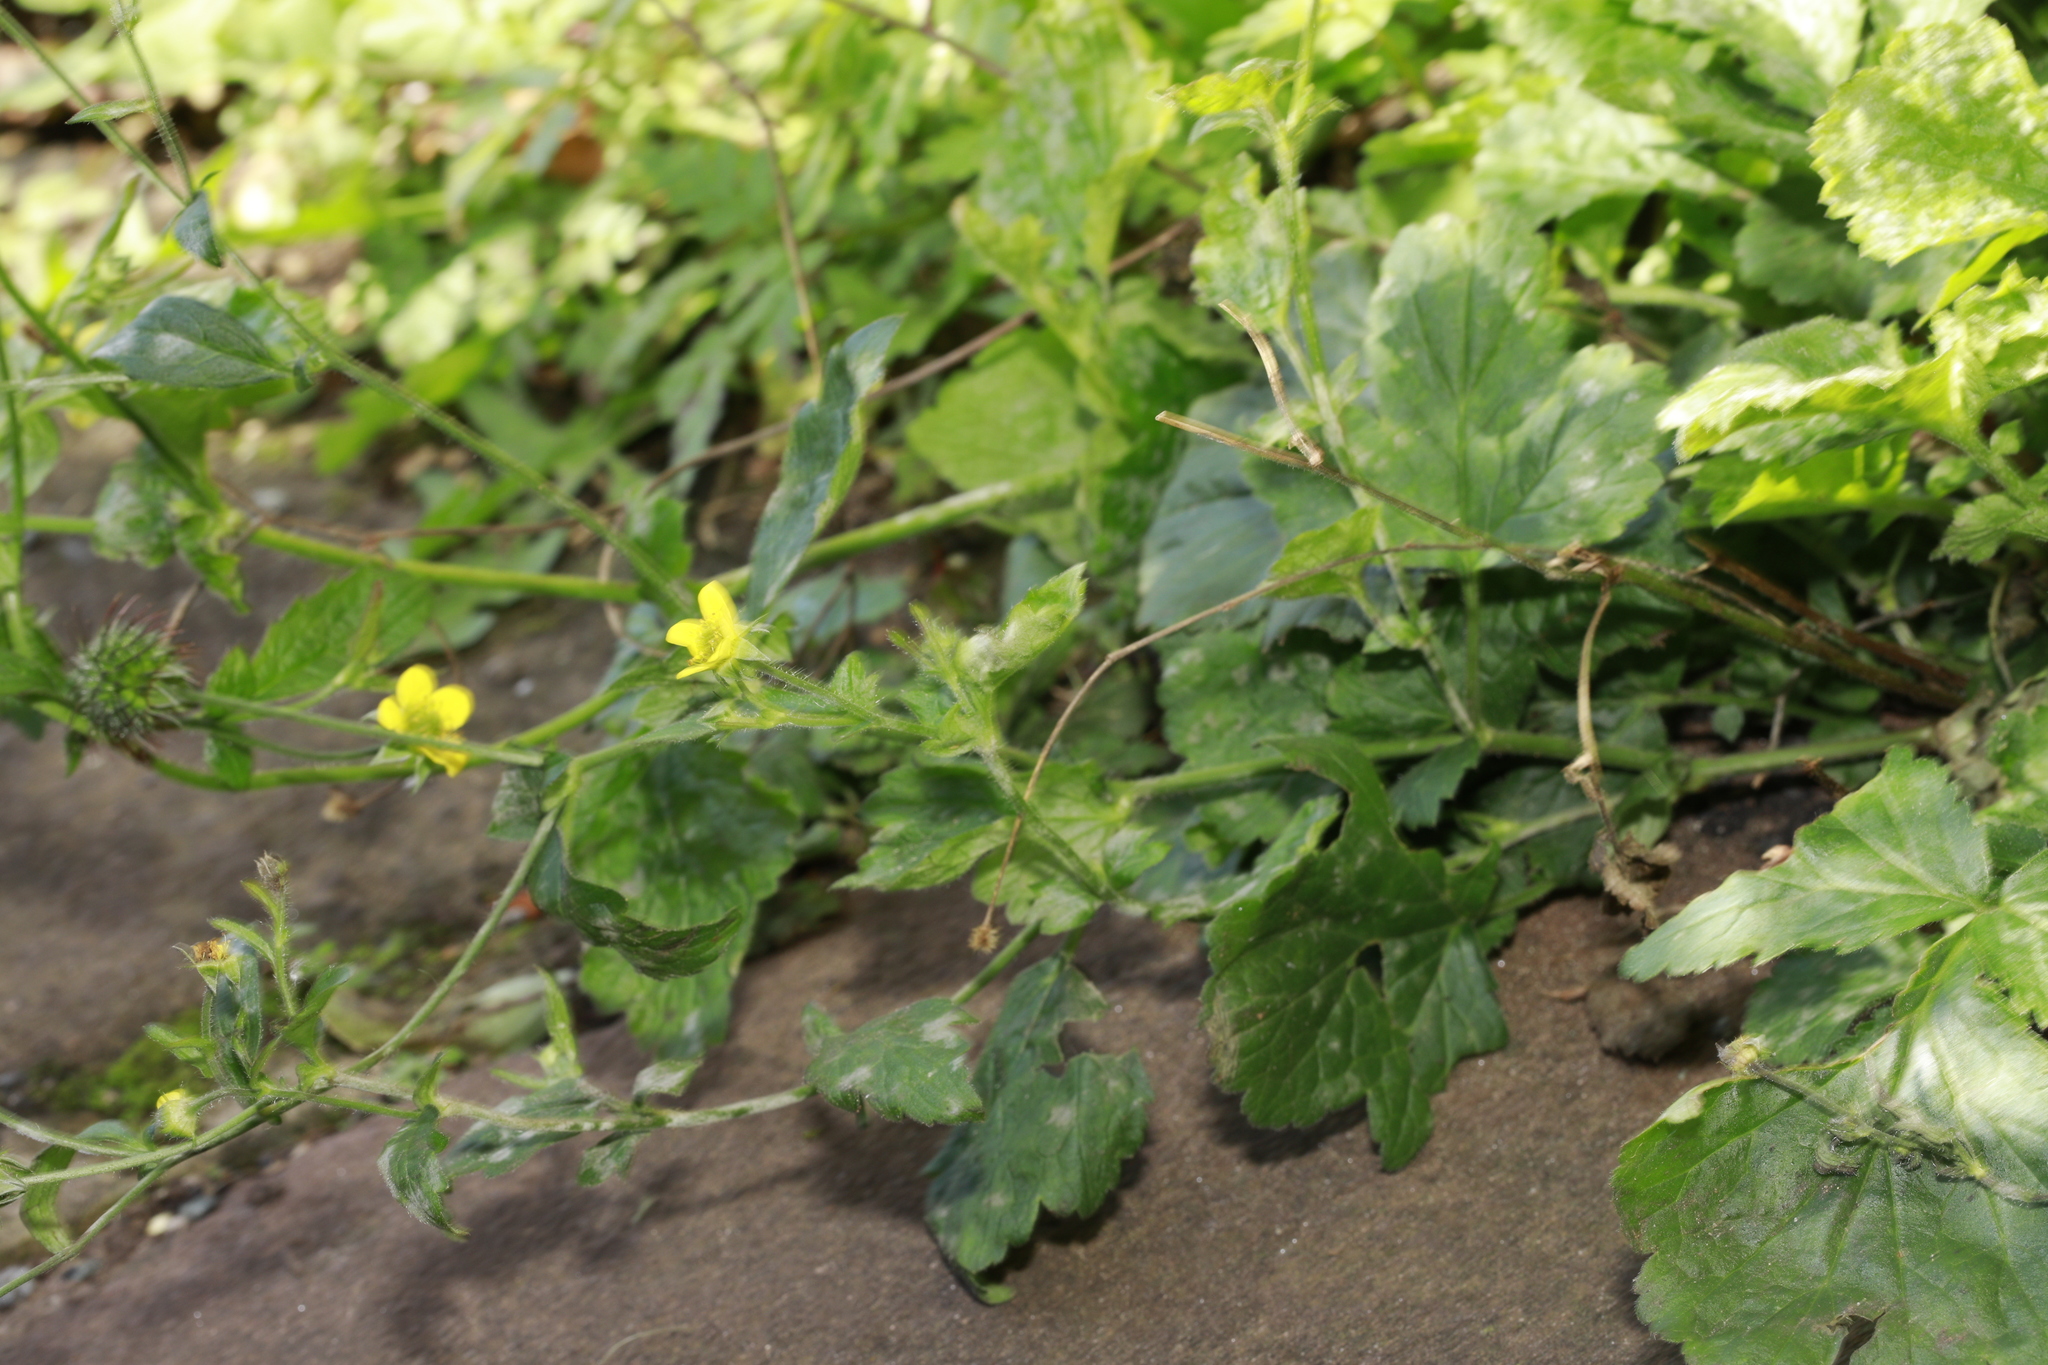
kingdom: Plantae
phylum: Tracheophyta
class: Magnoliopsida
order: Rosales
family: Rosaceae
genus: Geum
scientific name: Geum urbanum
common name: Wood avens
